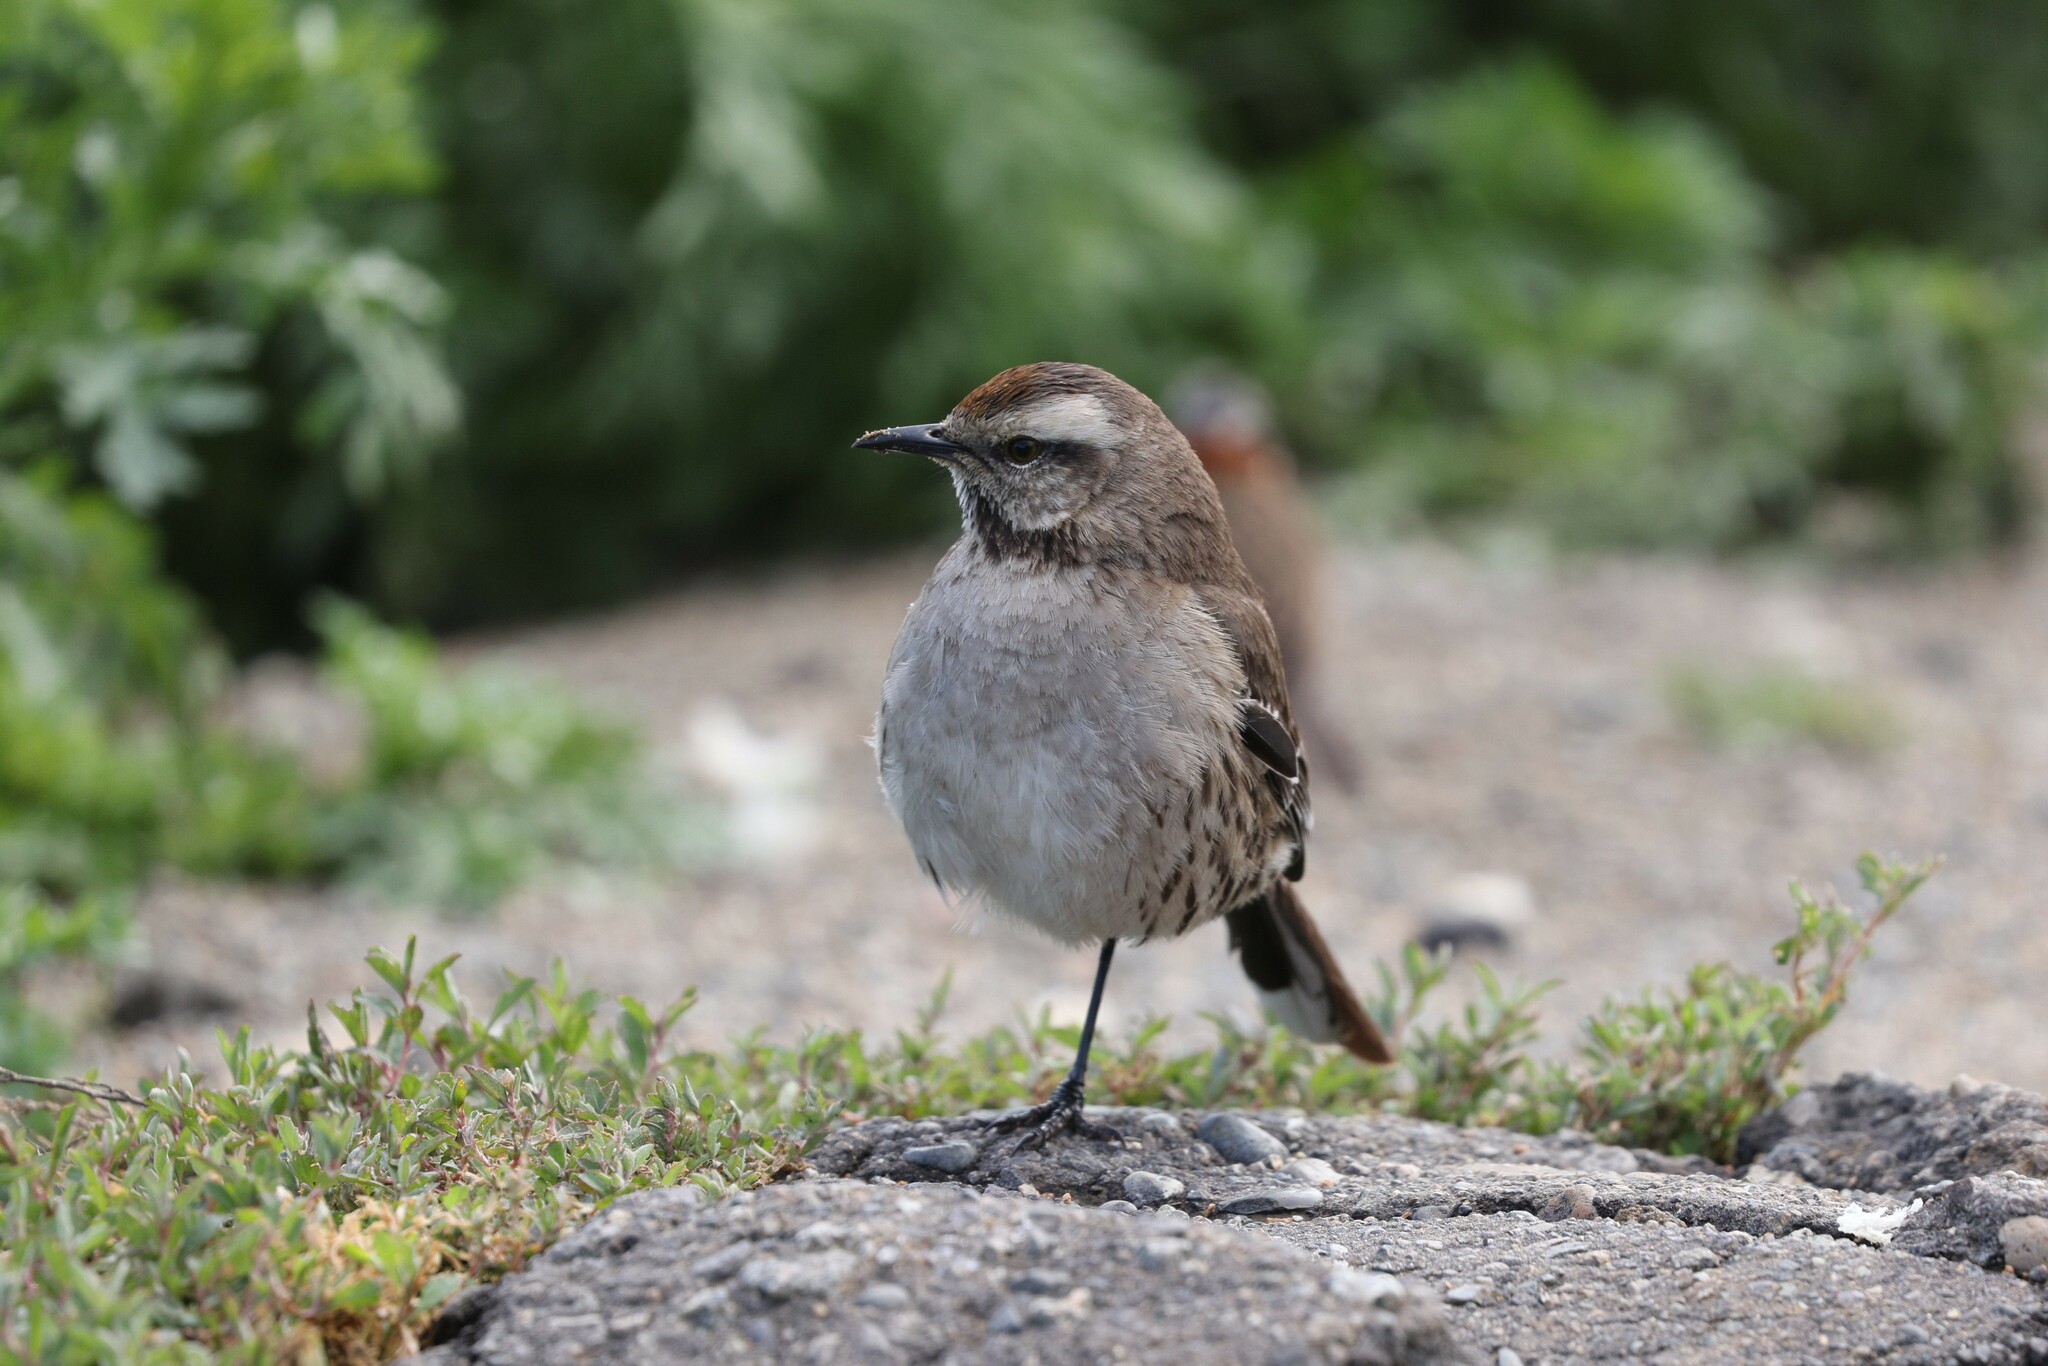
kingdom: Animalia
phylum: Chordata
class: Aves
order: Passeriformes
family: Mimidae
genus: Mimus
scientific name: Mimus thenca
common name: Chilean mockingbird
